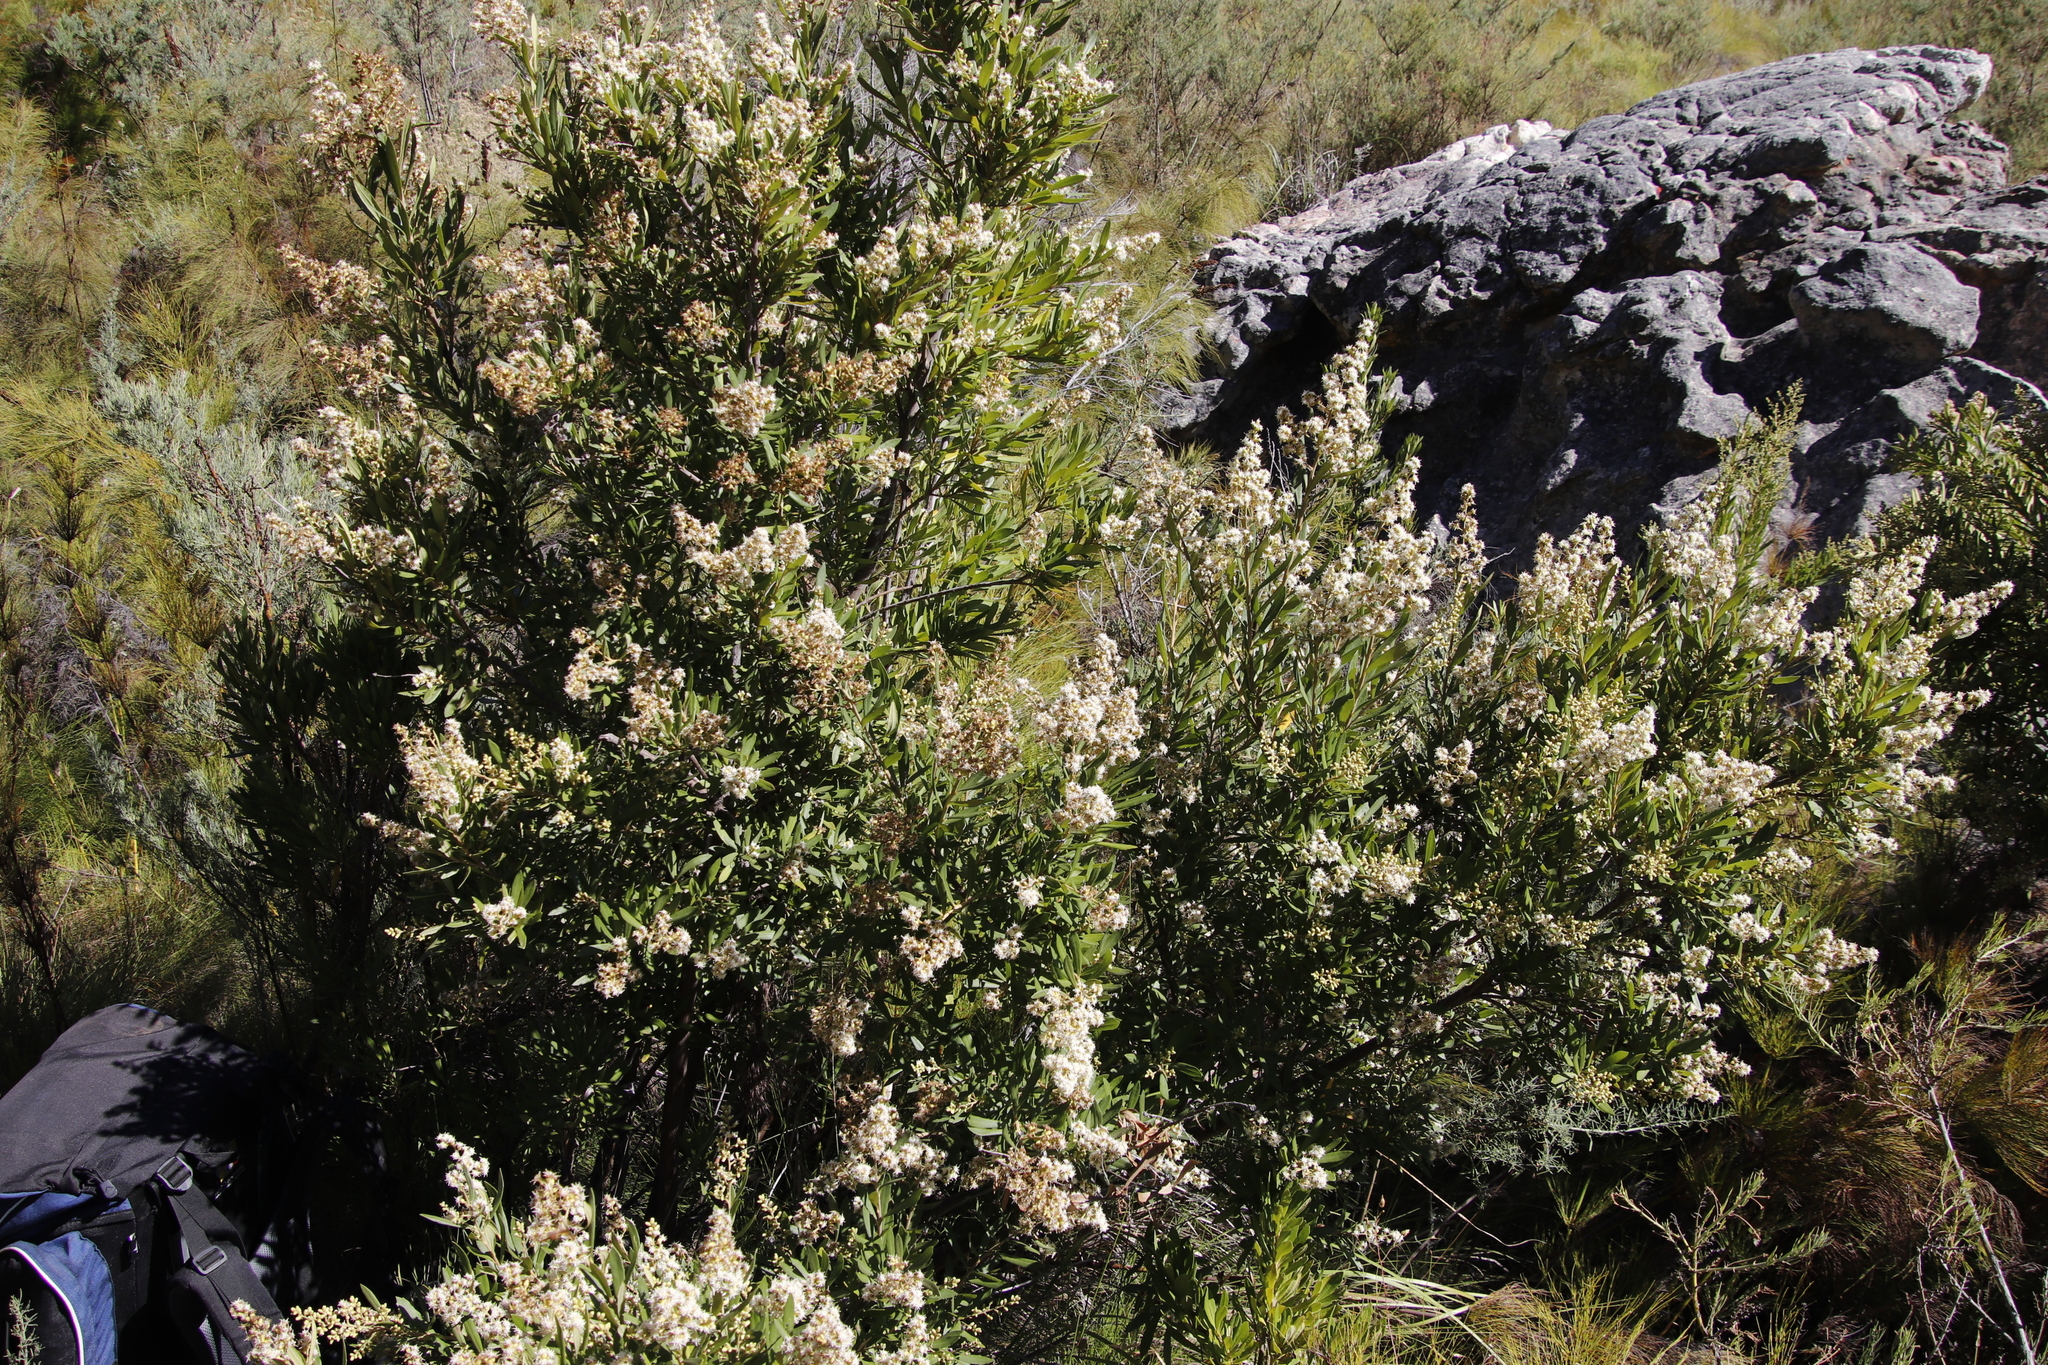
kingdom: Plantae
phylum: Tracheophyta
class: Magnoliopsida
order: Asterales
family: Asteraceae
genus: Brachylaena
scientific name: Brachylaena neriifolia
